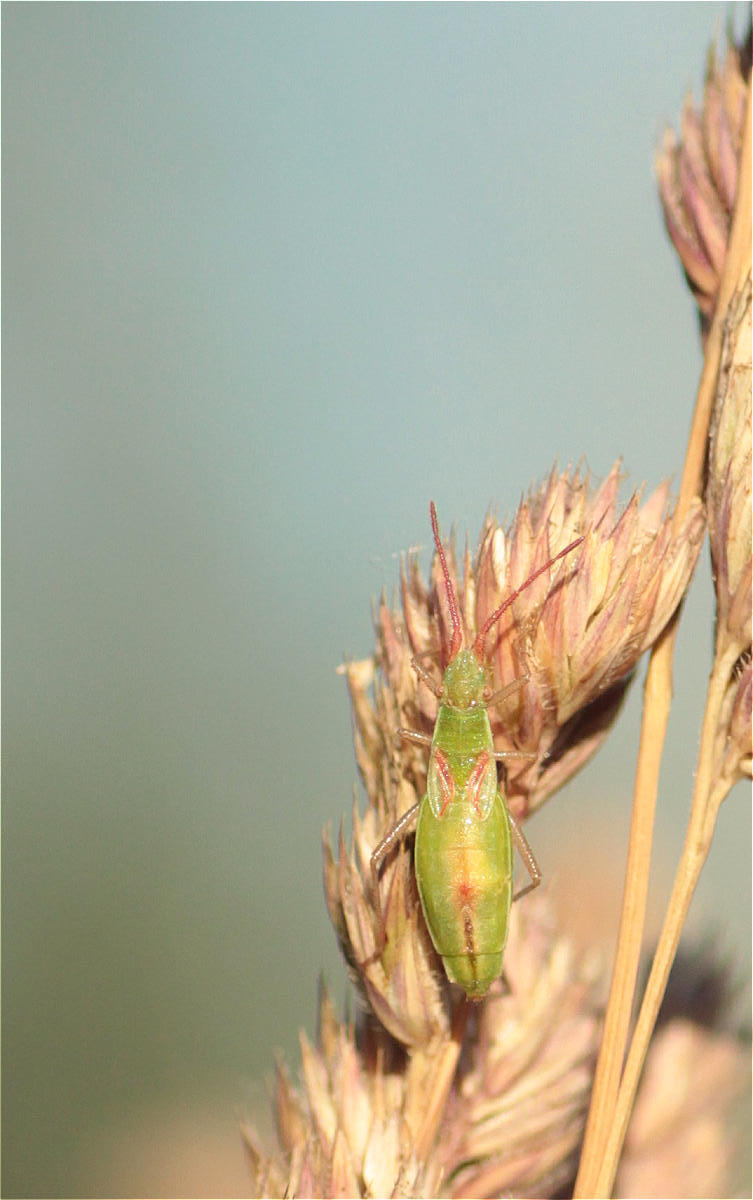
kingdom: Animalia
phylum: Arthropoda
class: Insecta
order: Hemiptera
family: Rhopalidae
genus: Myrmus
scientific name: Myrmus miriformis
